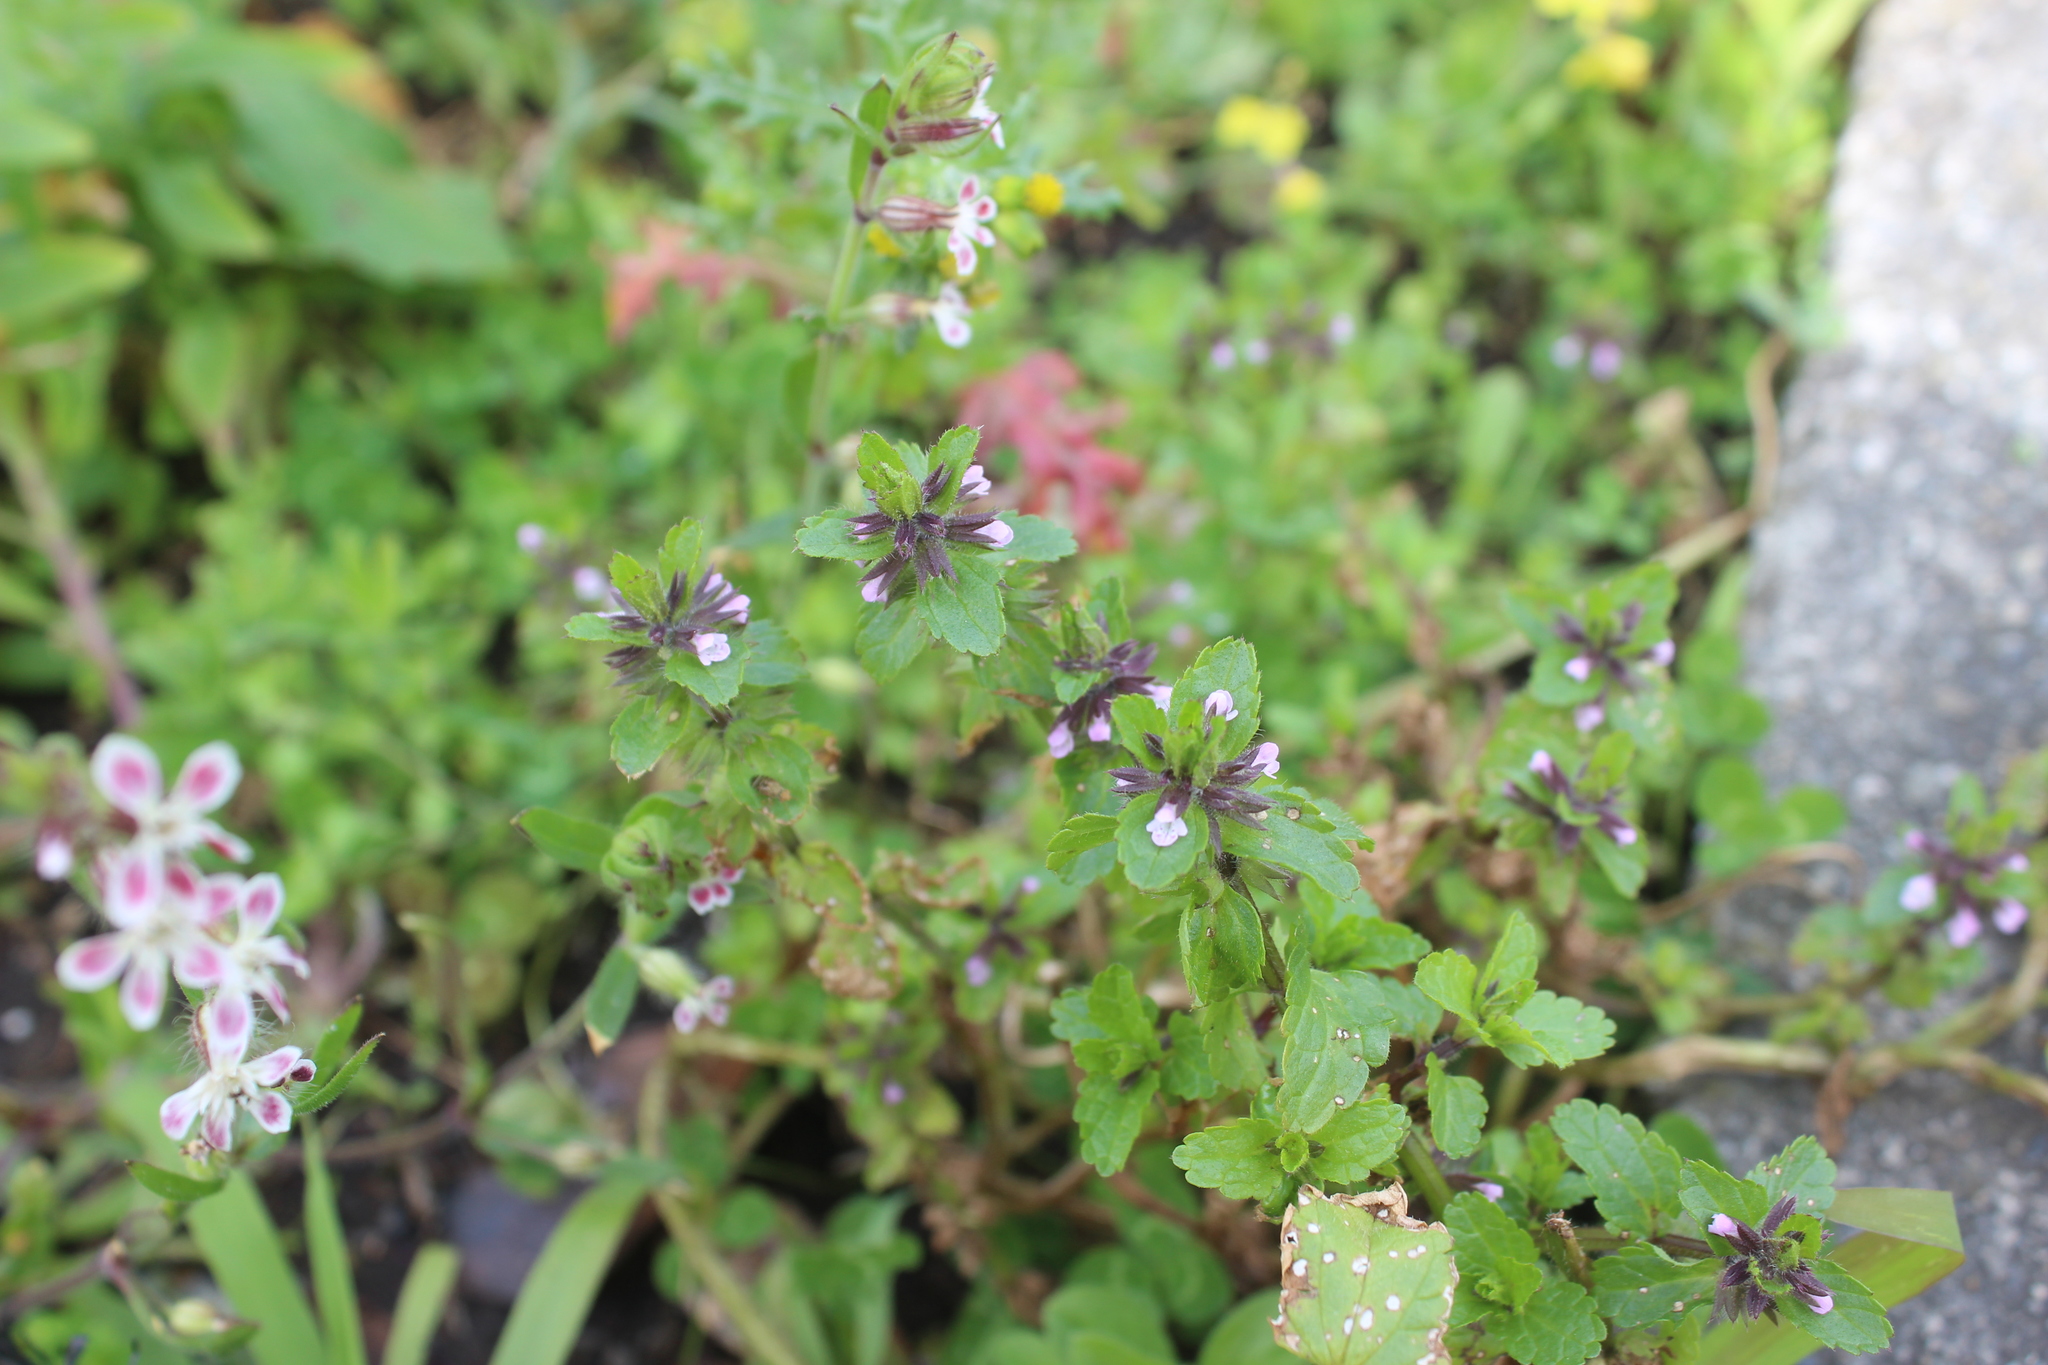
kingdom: Plantae
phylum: Tracheophyta
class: Magnoliopsida
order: Lamiales
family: Lamiaceae
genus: Stachys
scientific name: Stachys arvensis
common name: Field woundwort
